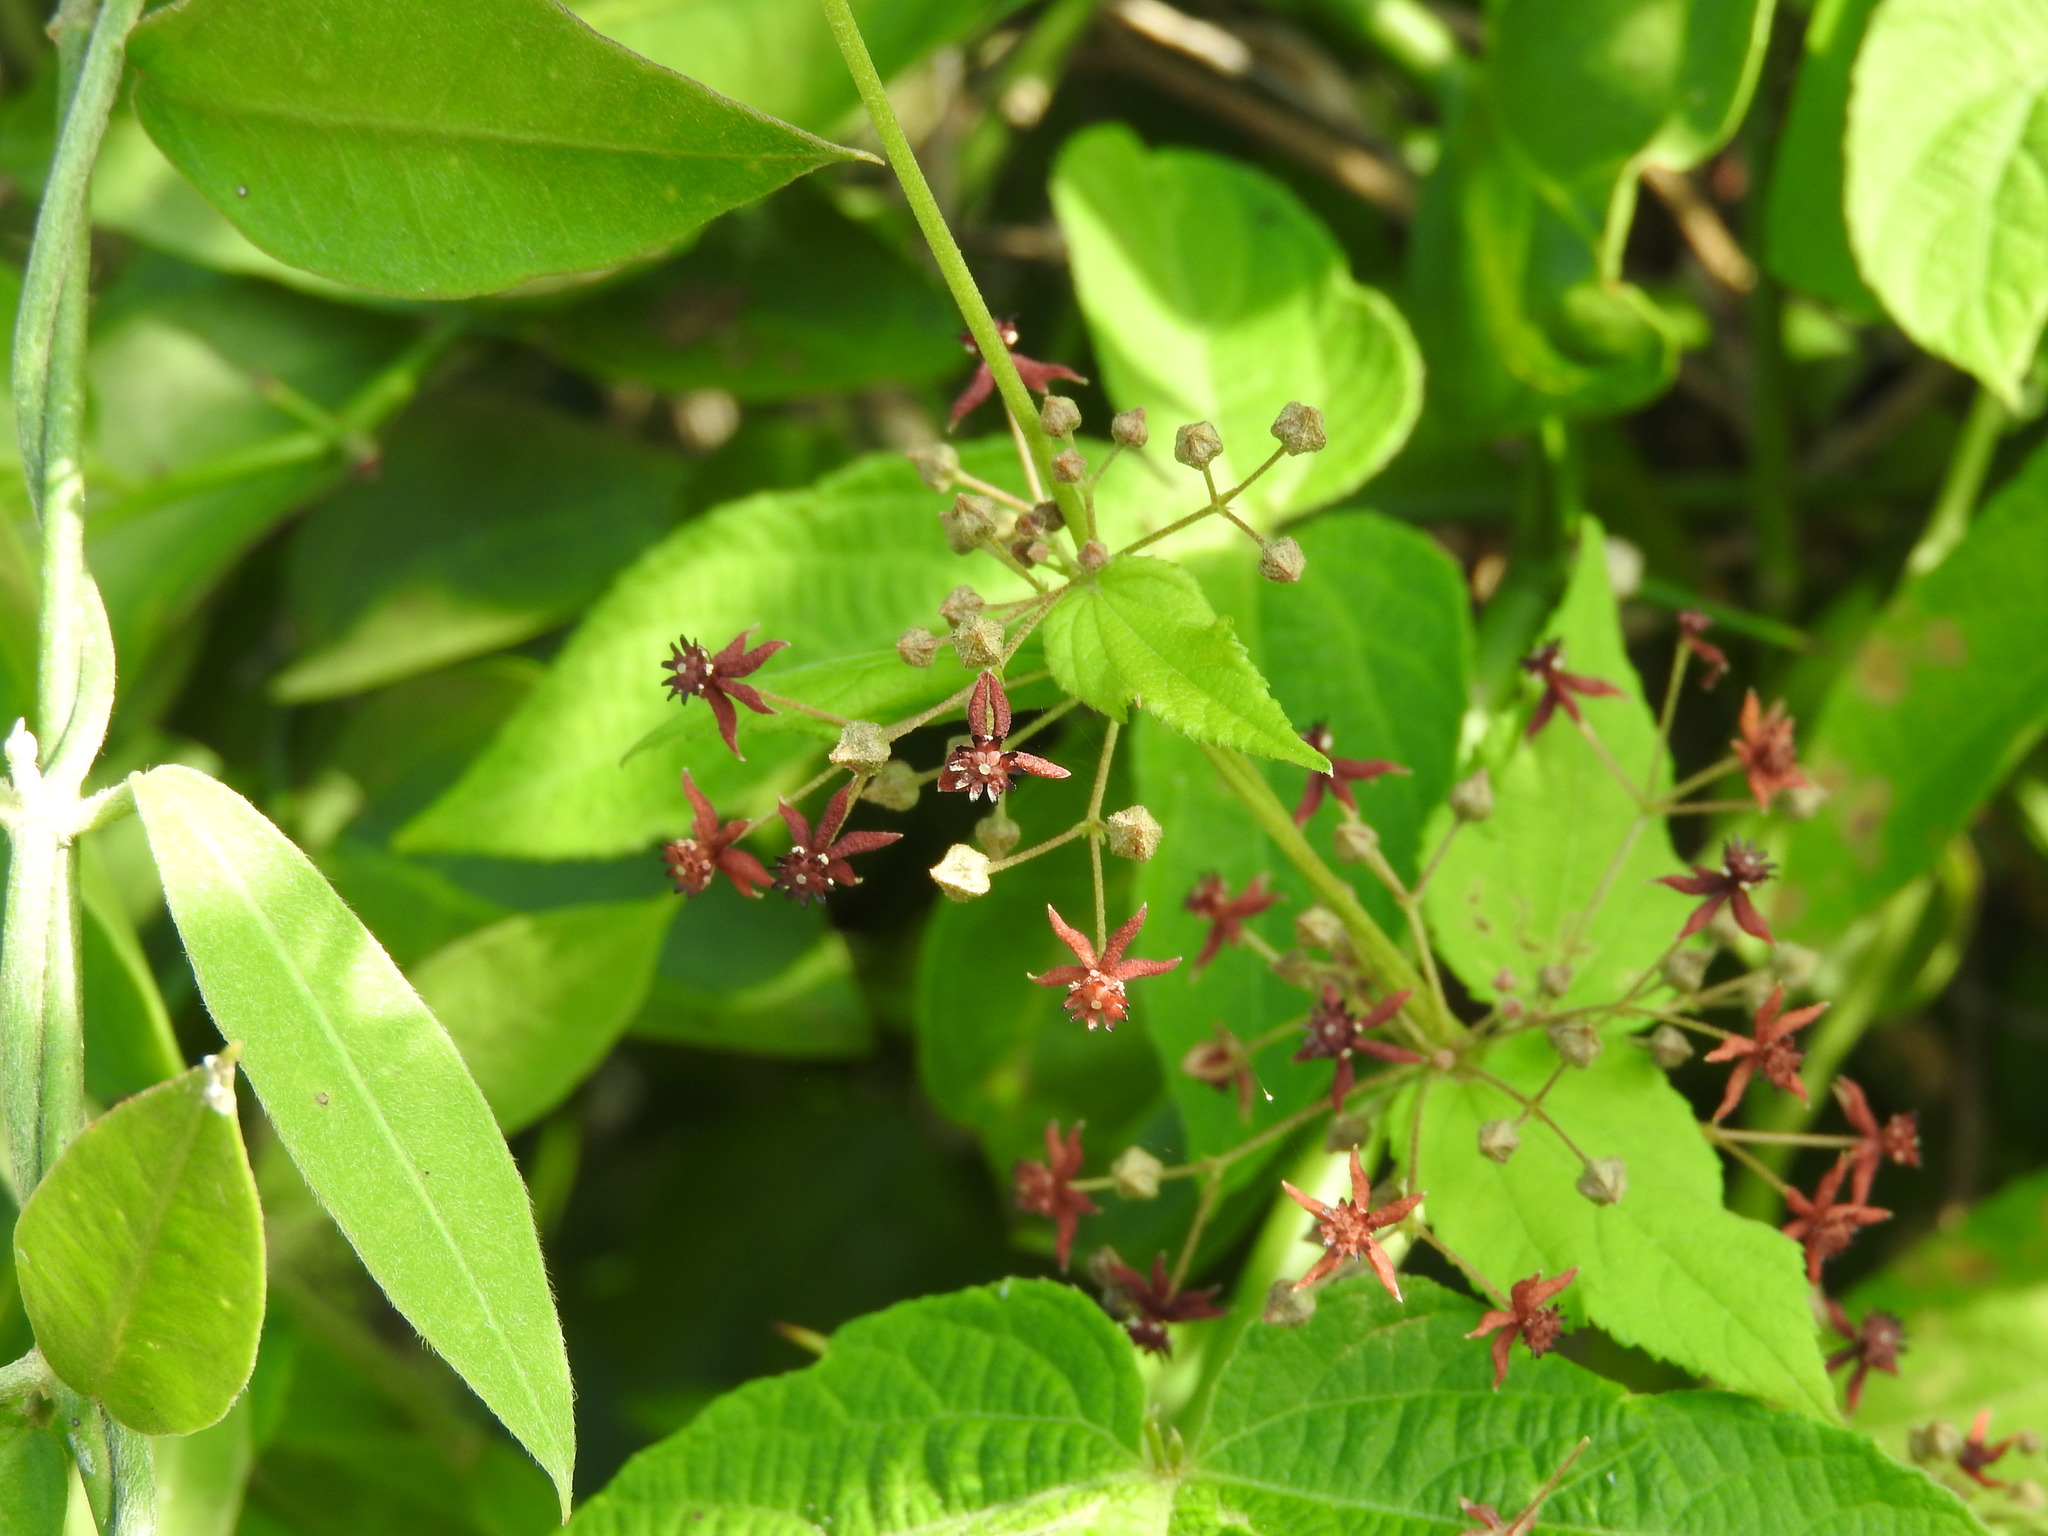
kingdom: Plantae
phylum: Tracheophyta
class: Magnoliopsida
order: Malvales
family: Malvaceae
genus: Byttneria
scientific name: Byttneria aculeata
